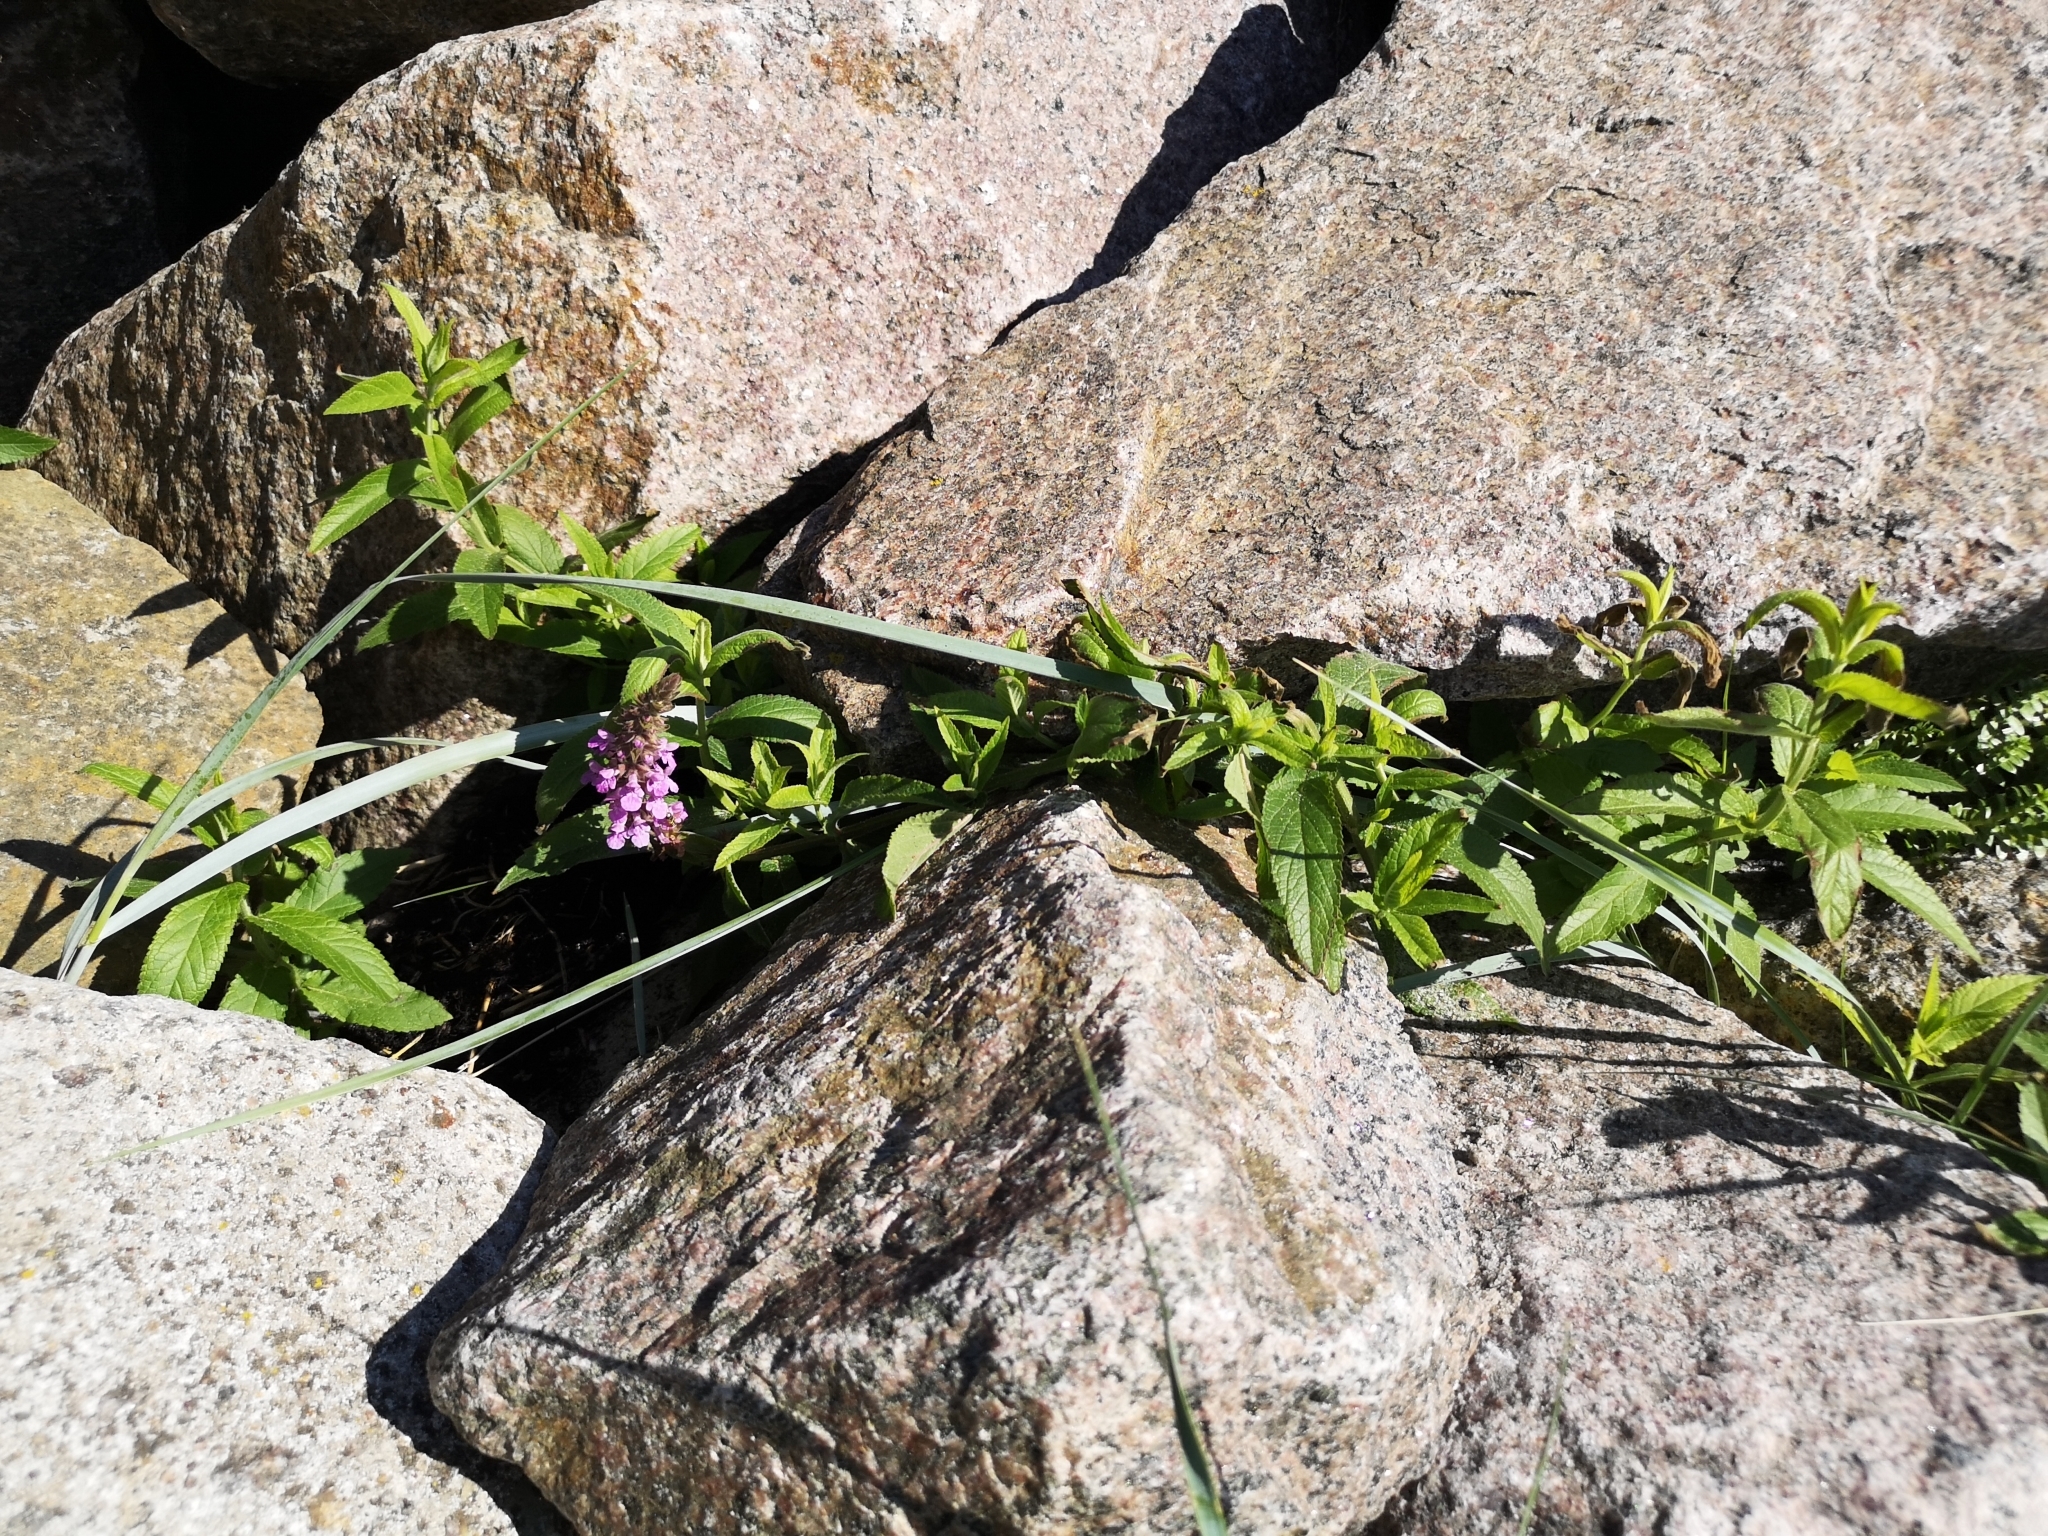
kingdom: Plantae
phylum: Tracheophyta
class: Magnoliopsida
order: Lamiales
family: Lamiaceae
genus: Stachys
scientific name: Stachys palustris
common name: Marsh woundwort
